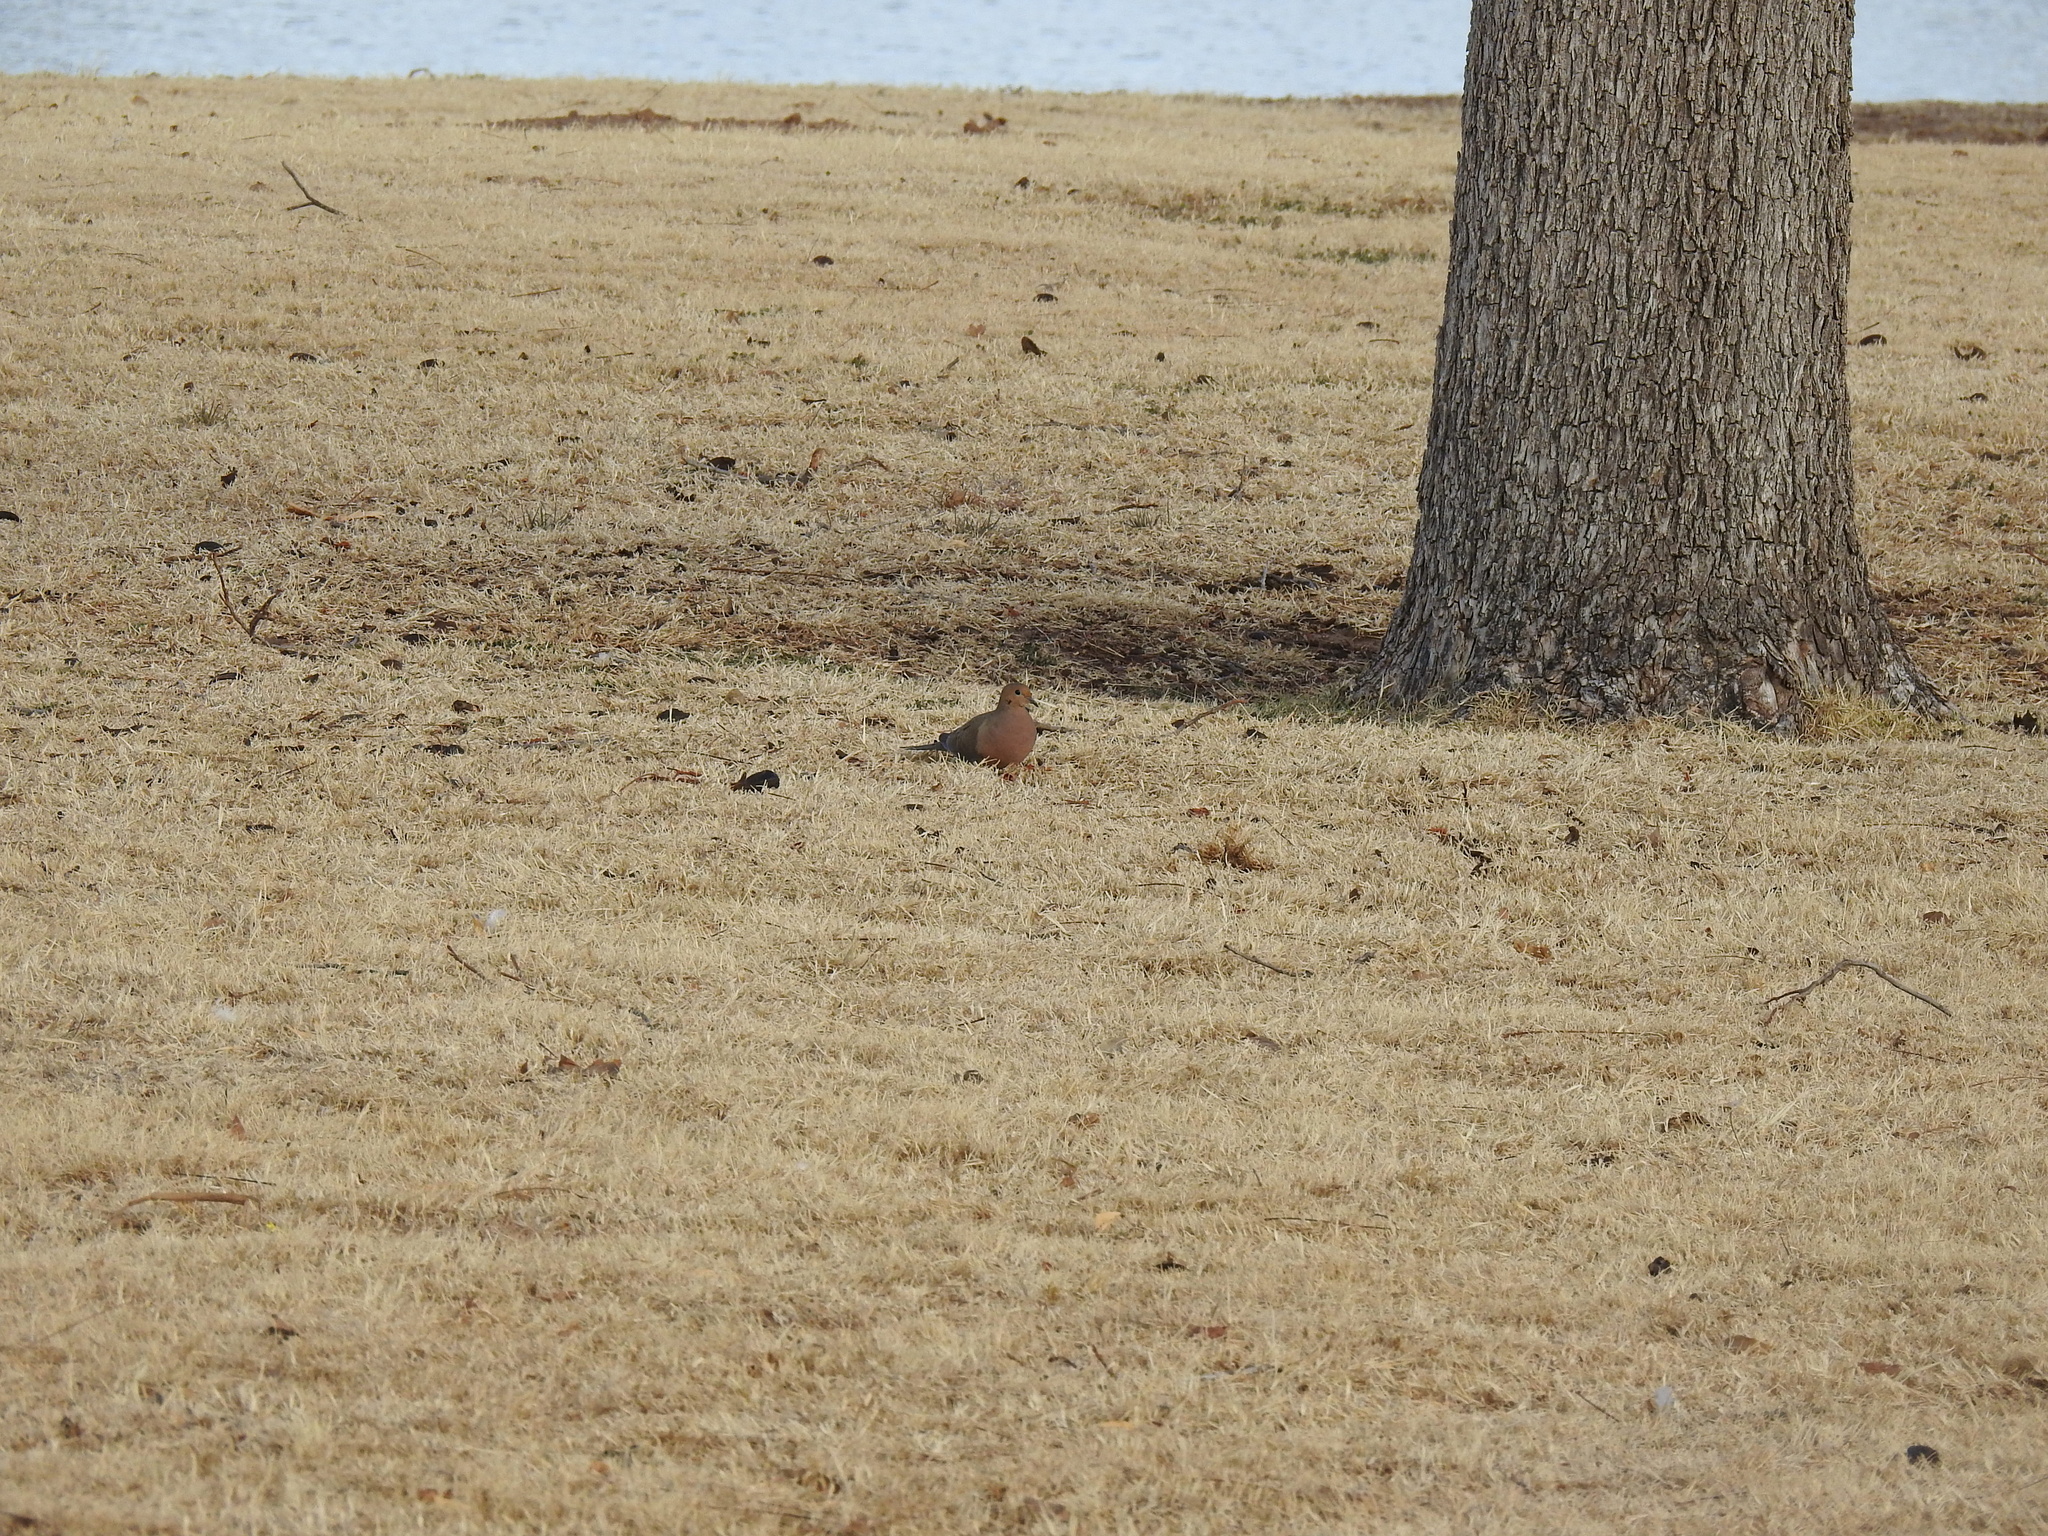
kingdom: Animalia
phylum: Chordata
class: Aves
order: Columbiformes
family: Columbidae
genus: Zenaida
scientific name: Zenaida macroura
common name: Mourning dove
